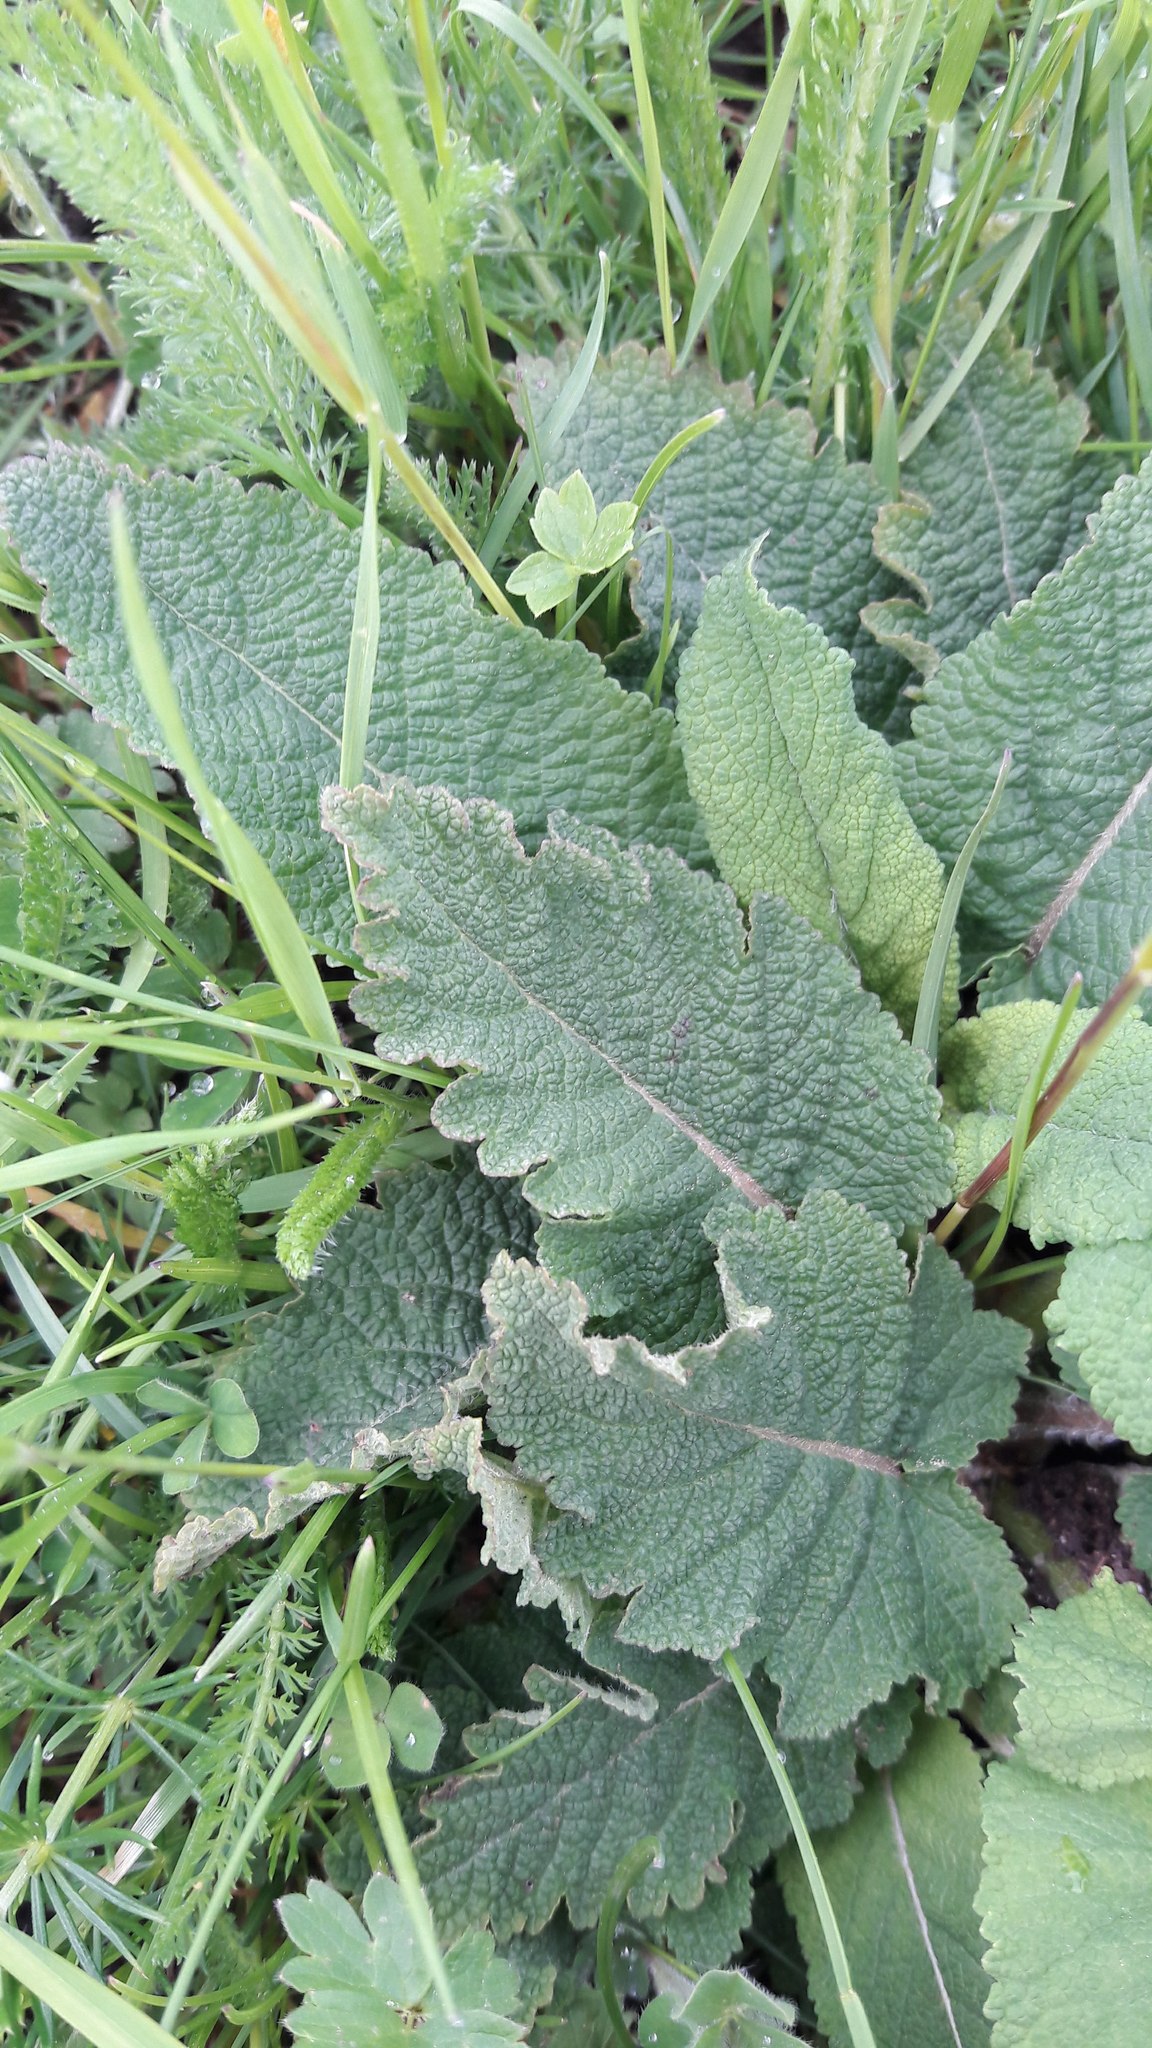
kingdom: Plantae
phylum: Tracheophyta
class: Magnoliopsida
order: Lamiales
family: Lamiaceae
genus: Salvia
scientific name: Salvia verbenaca
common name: Wild clary
